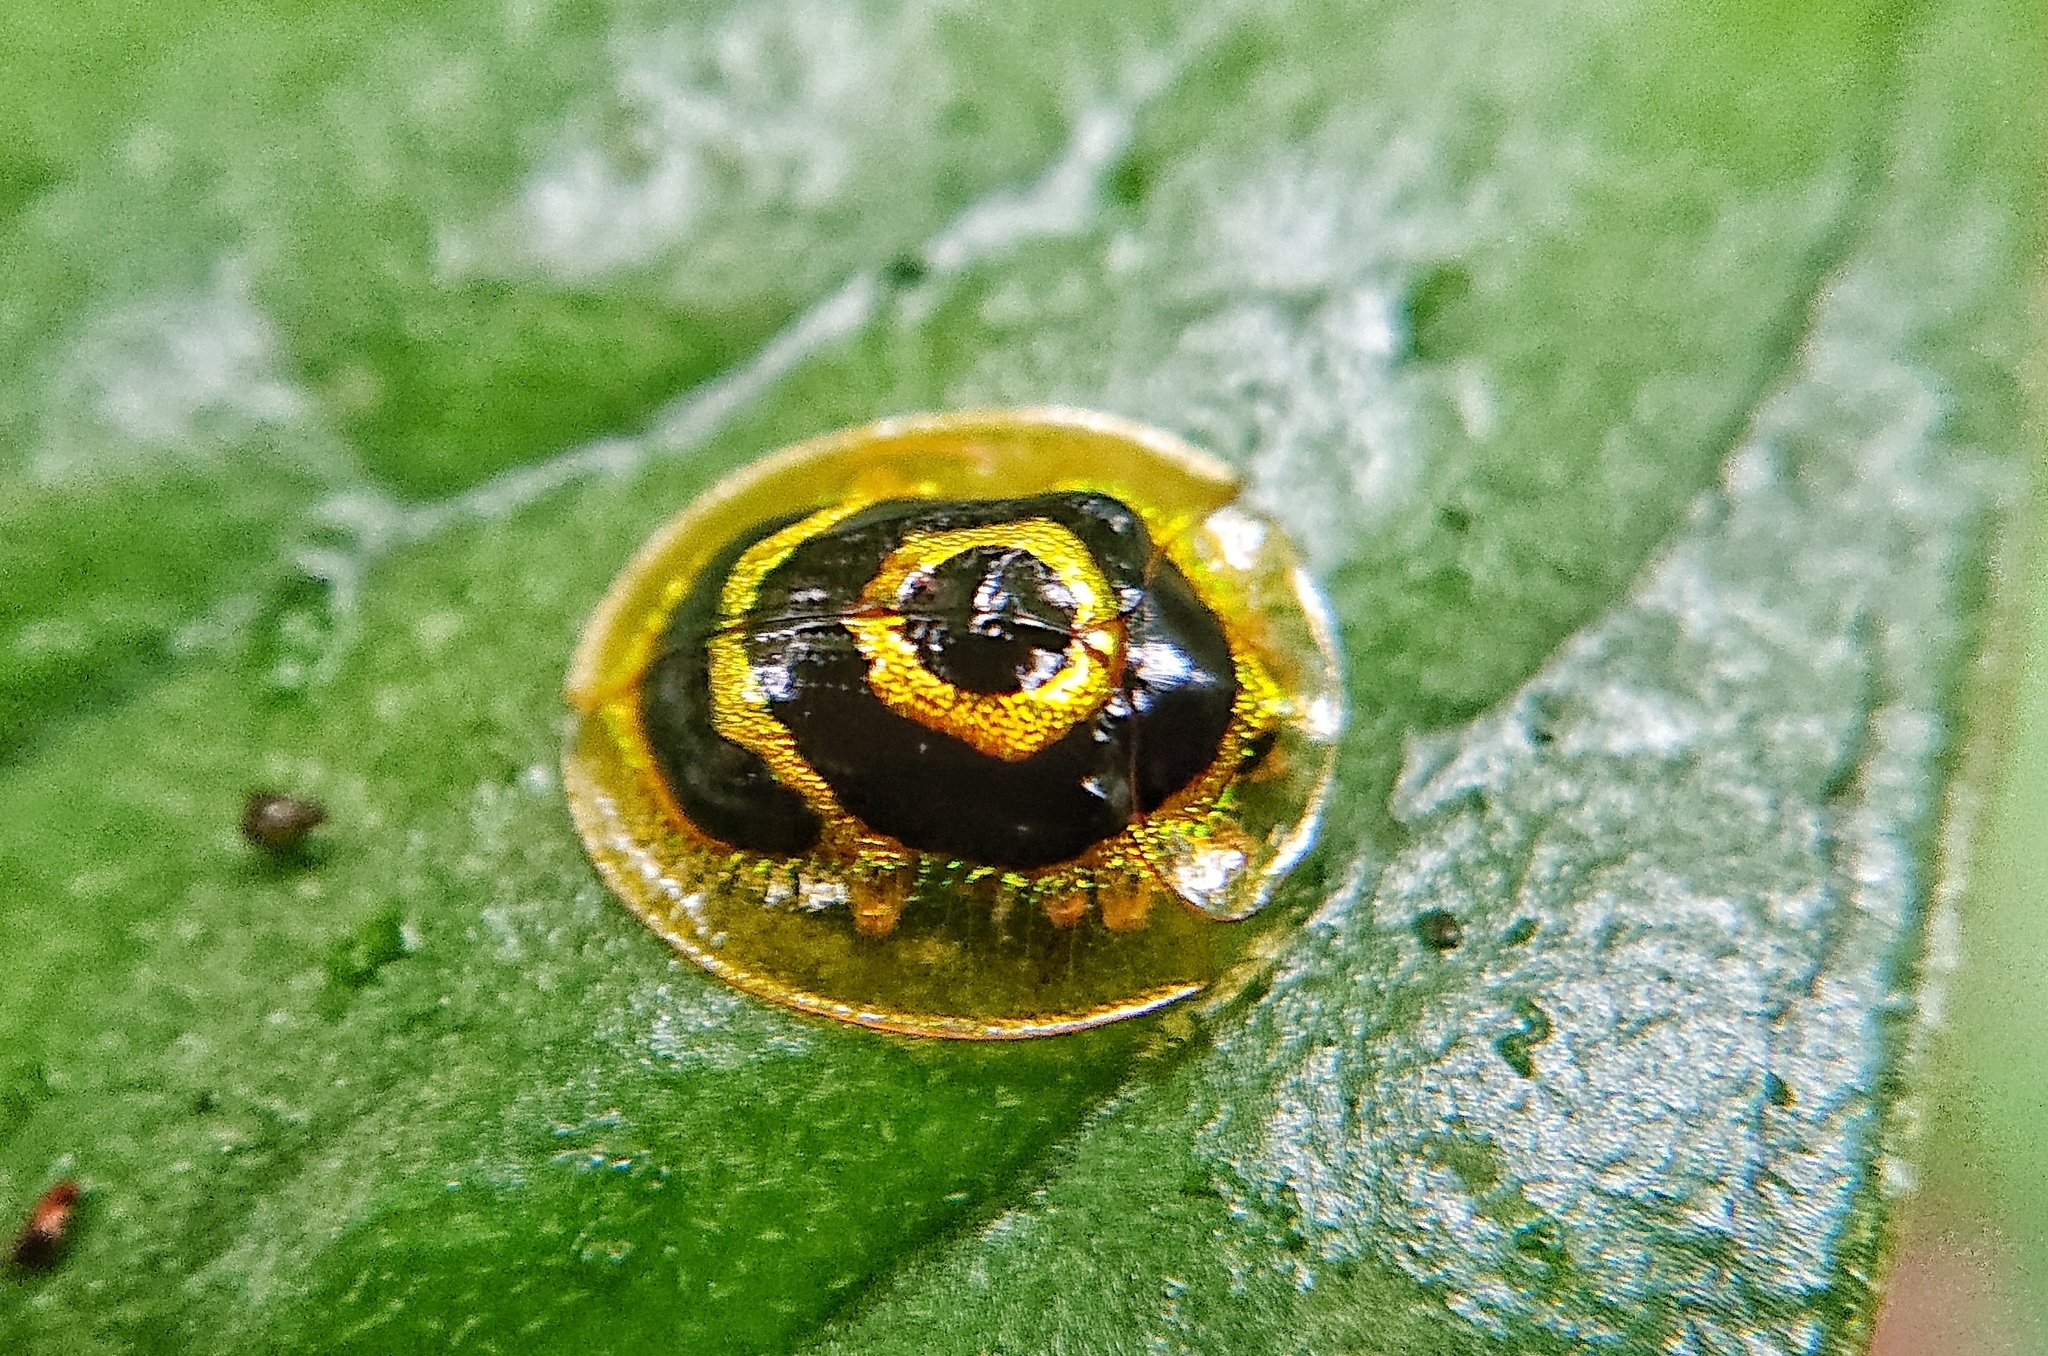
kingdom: Animalia
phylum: Arthropoda
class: Insecta
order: Coleoptera
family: Chrysomelidae
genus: Ischnocodia
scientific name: Ischnocodia annulus
